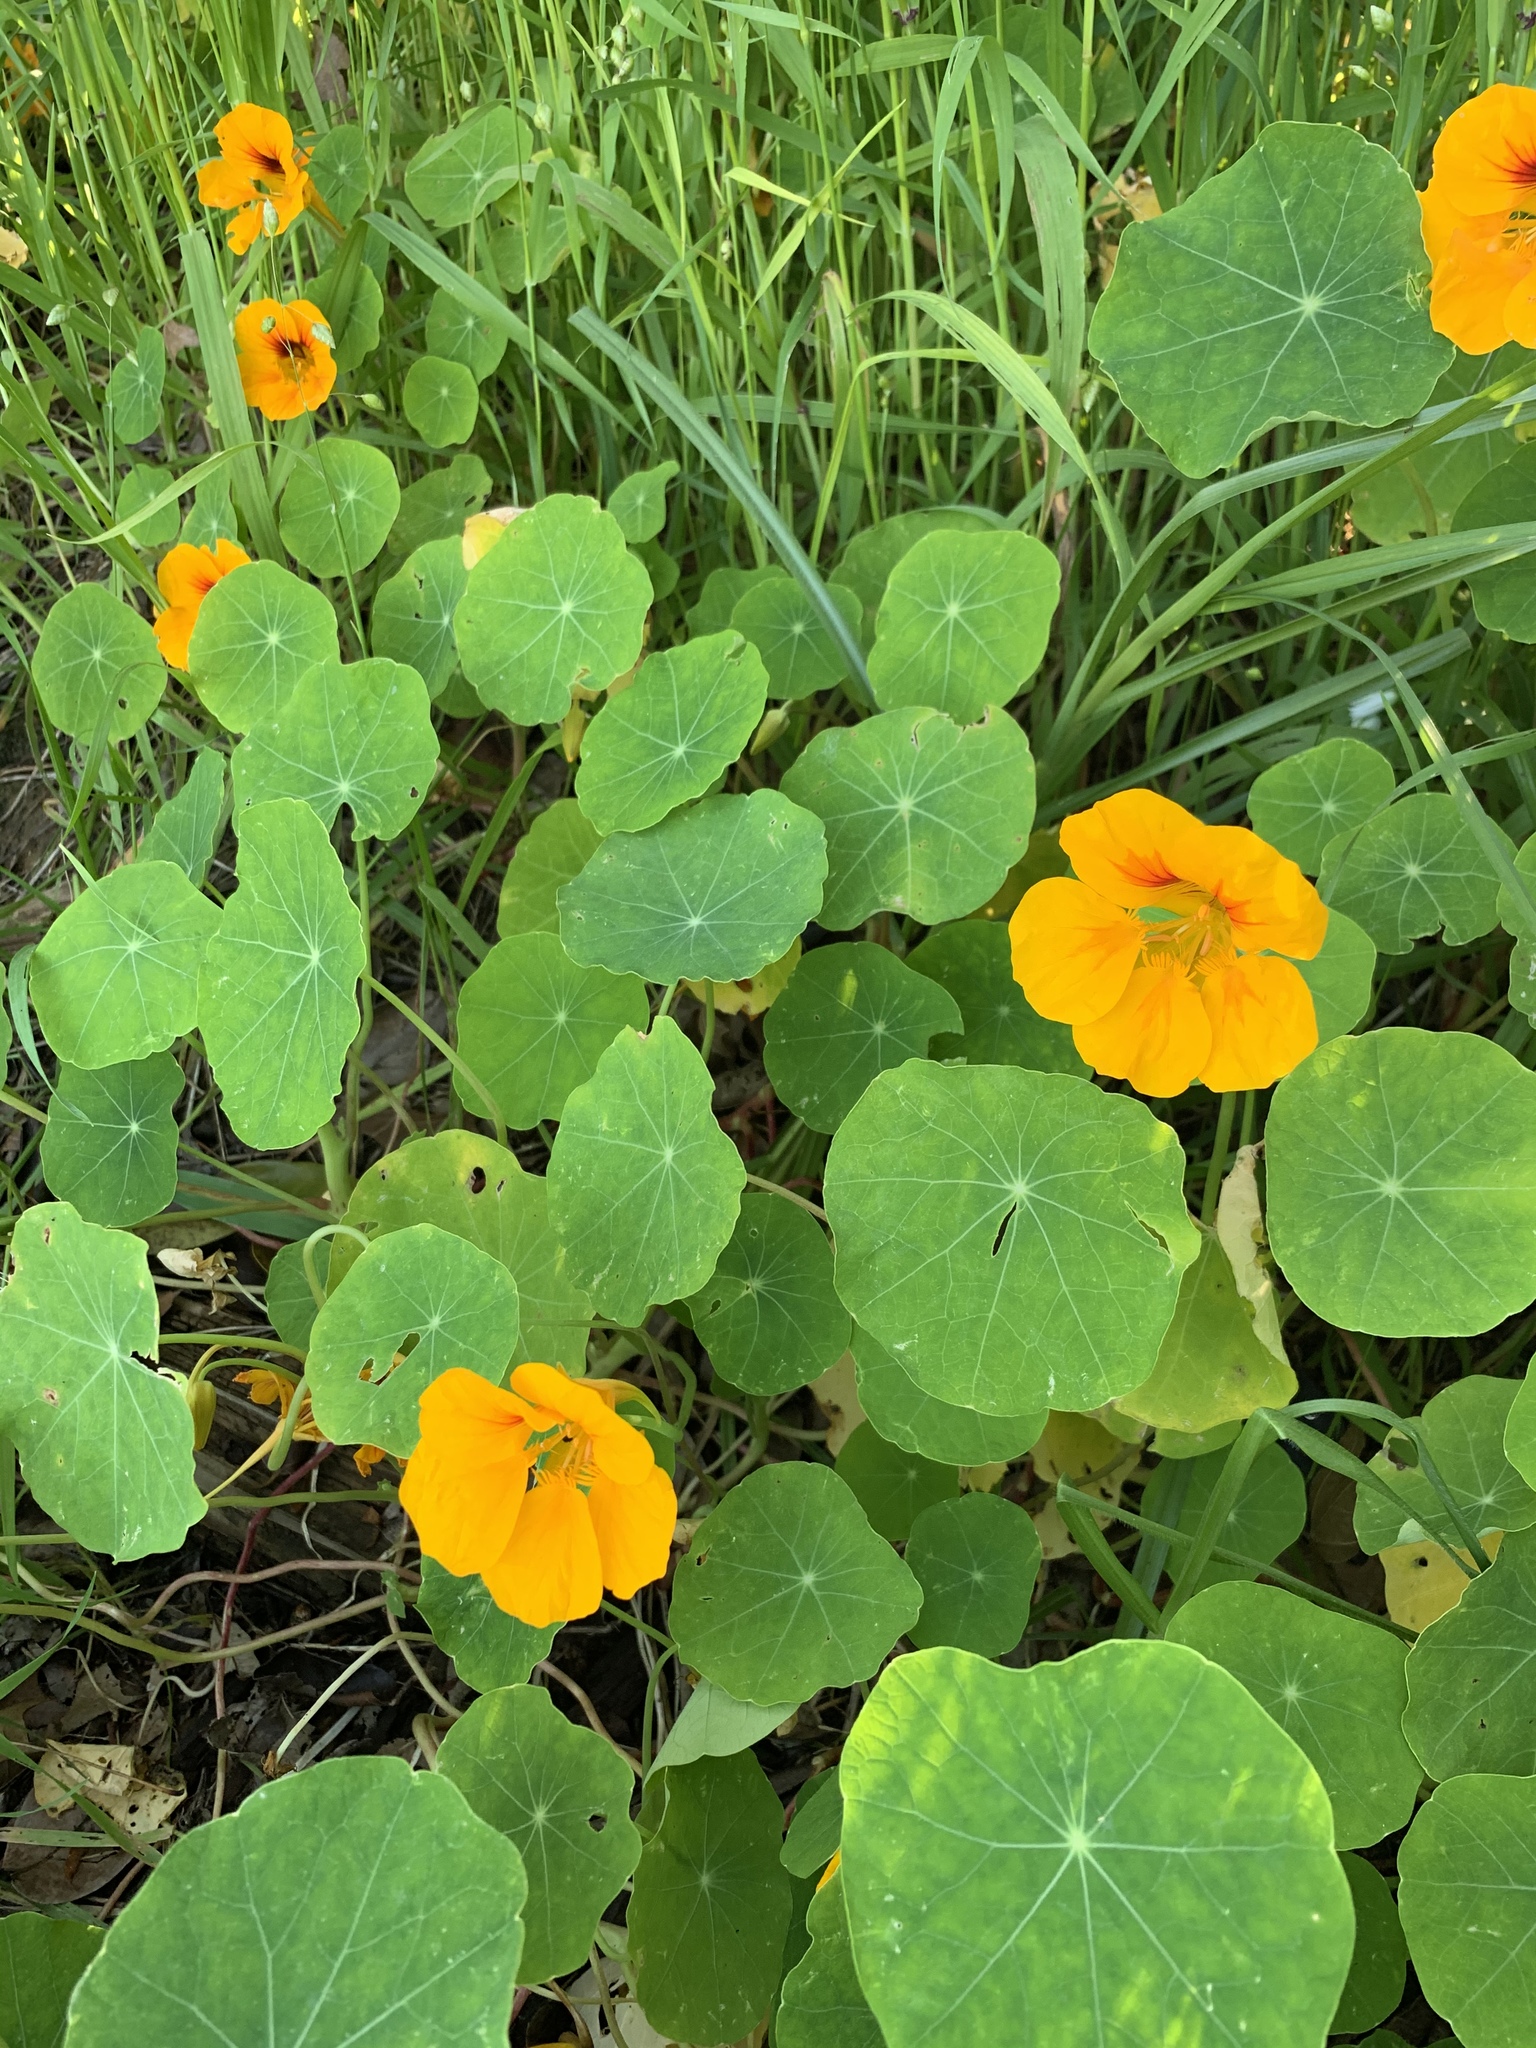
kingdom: Plantae
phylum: Tracheophyta
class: Magnoliopsida
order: Brassicales
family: Tropaeolaceae
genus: Tropaeolum
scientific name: Tropaeolum majus
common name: Nasturtium
